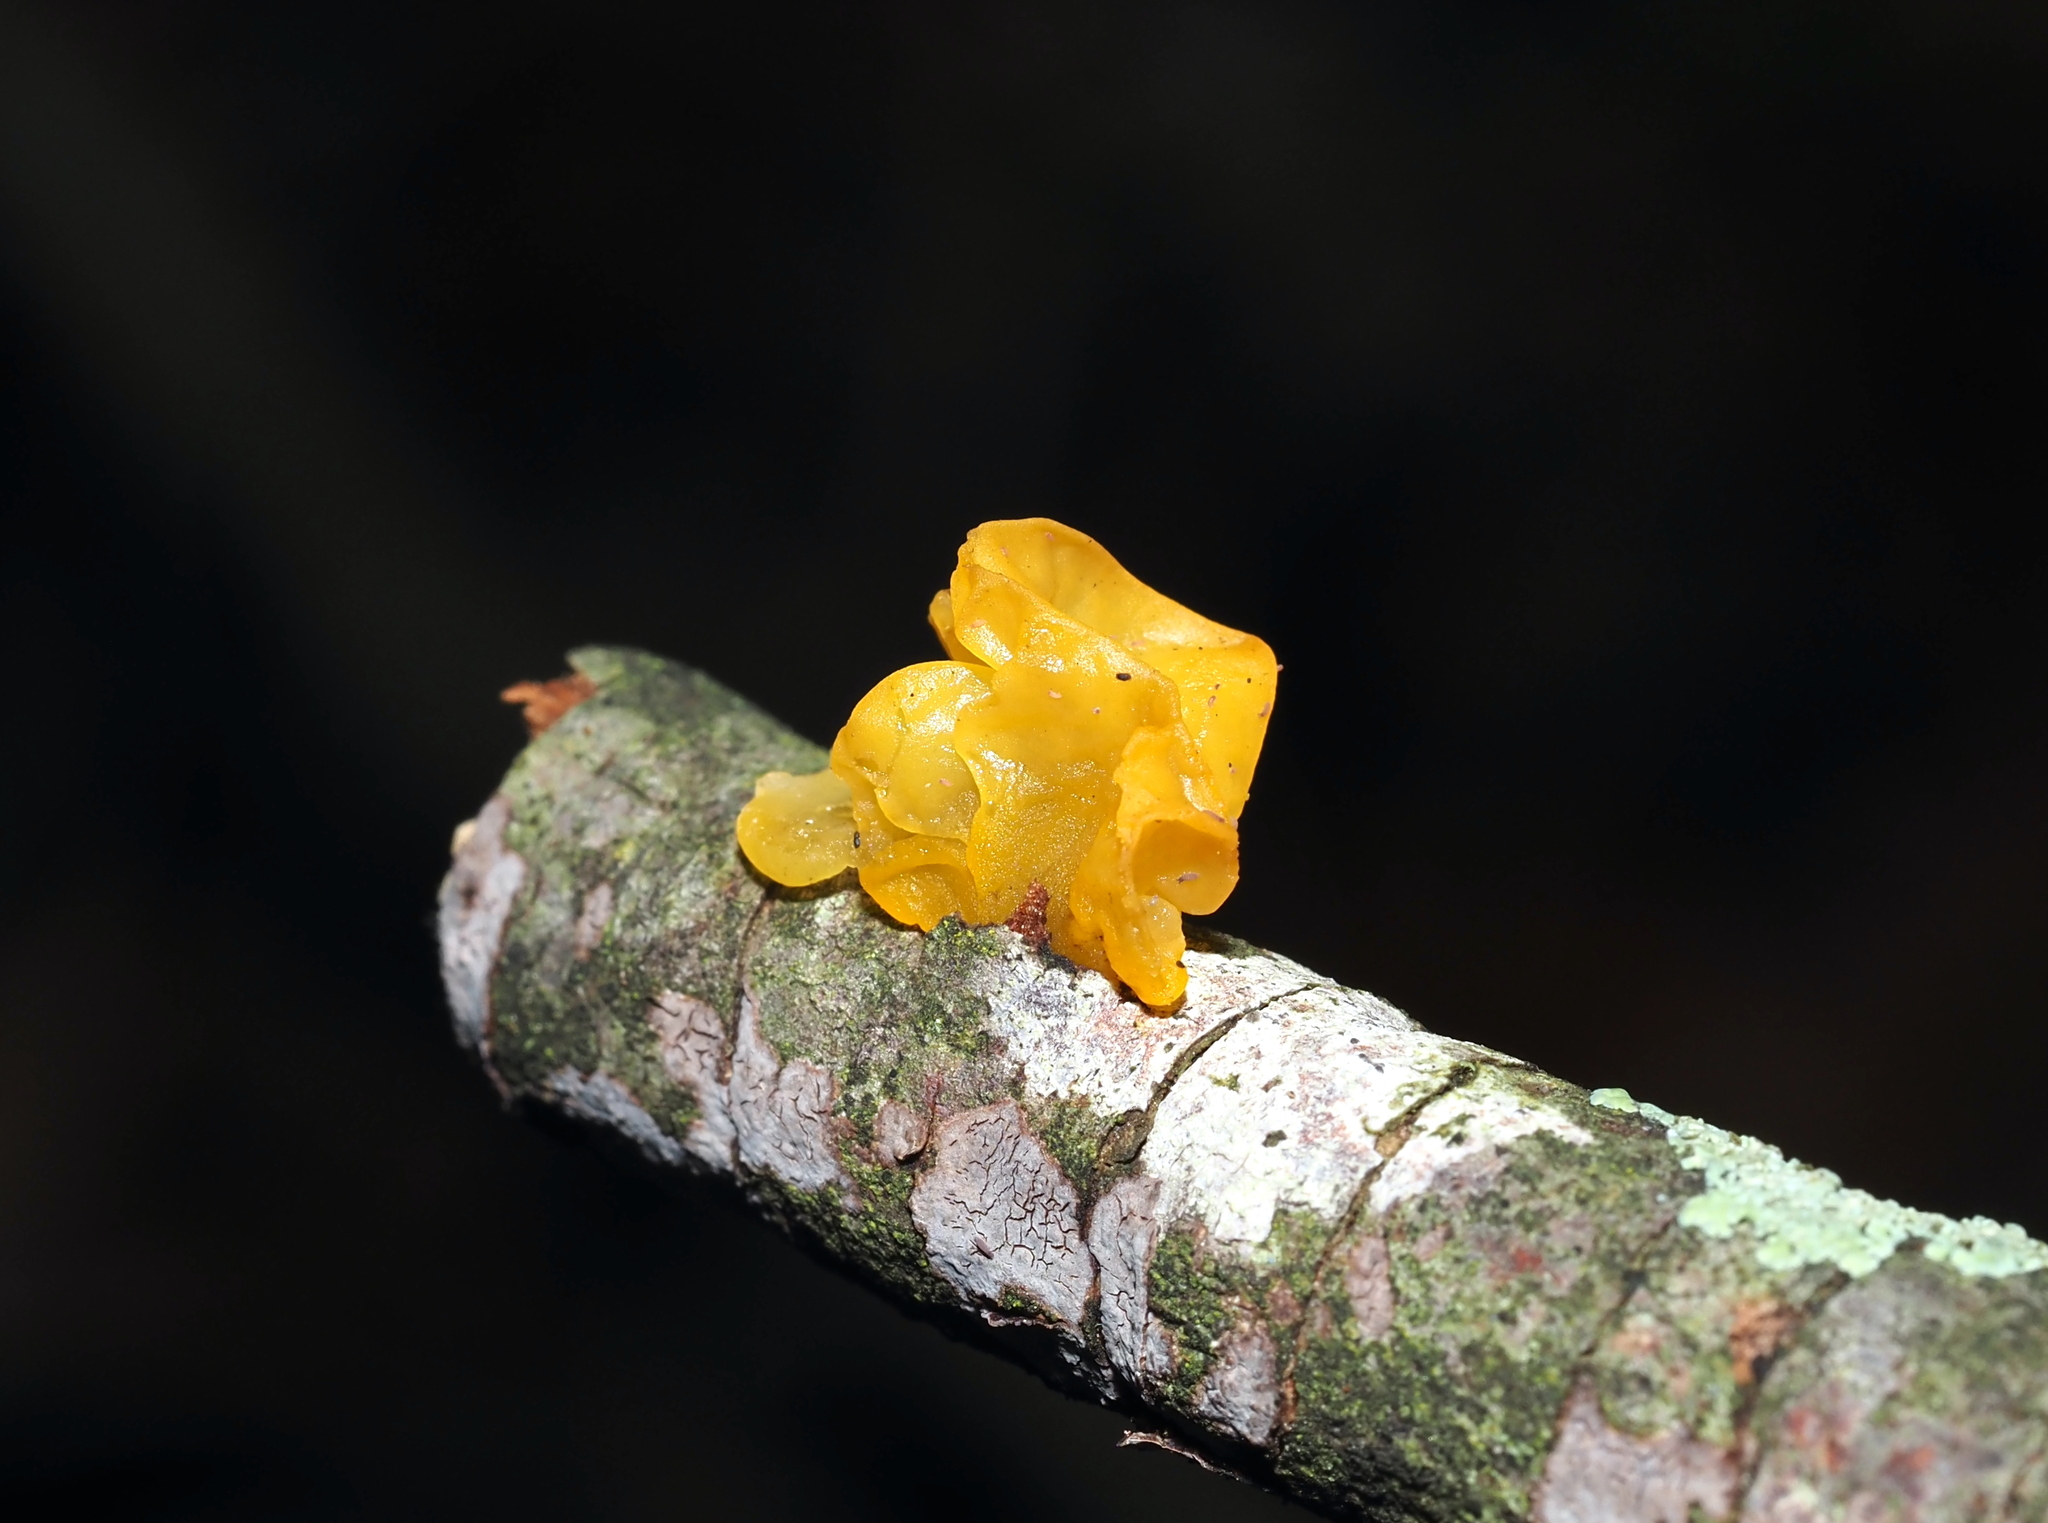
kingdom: Fungi
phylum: Basidiomycota
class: Tremellomycetes
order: Tremellales
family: Tremellaceae
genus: Tremella
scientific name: Tremella mesenterica
